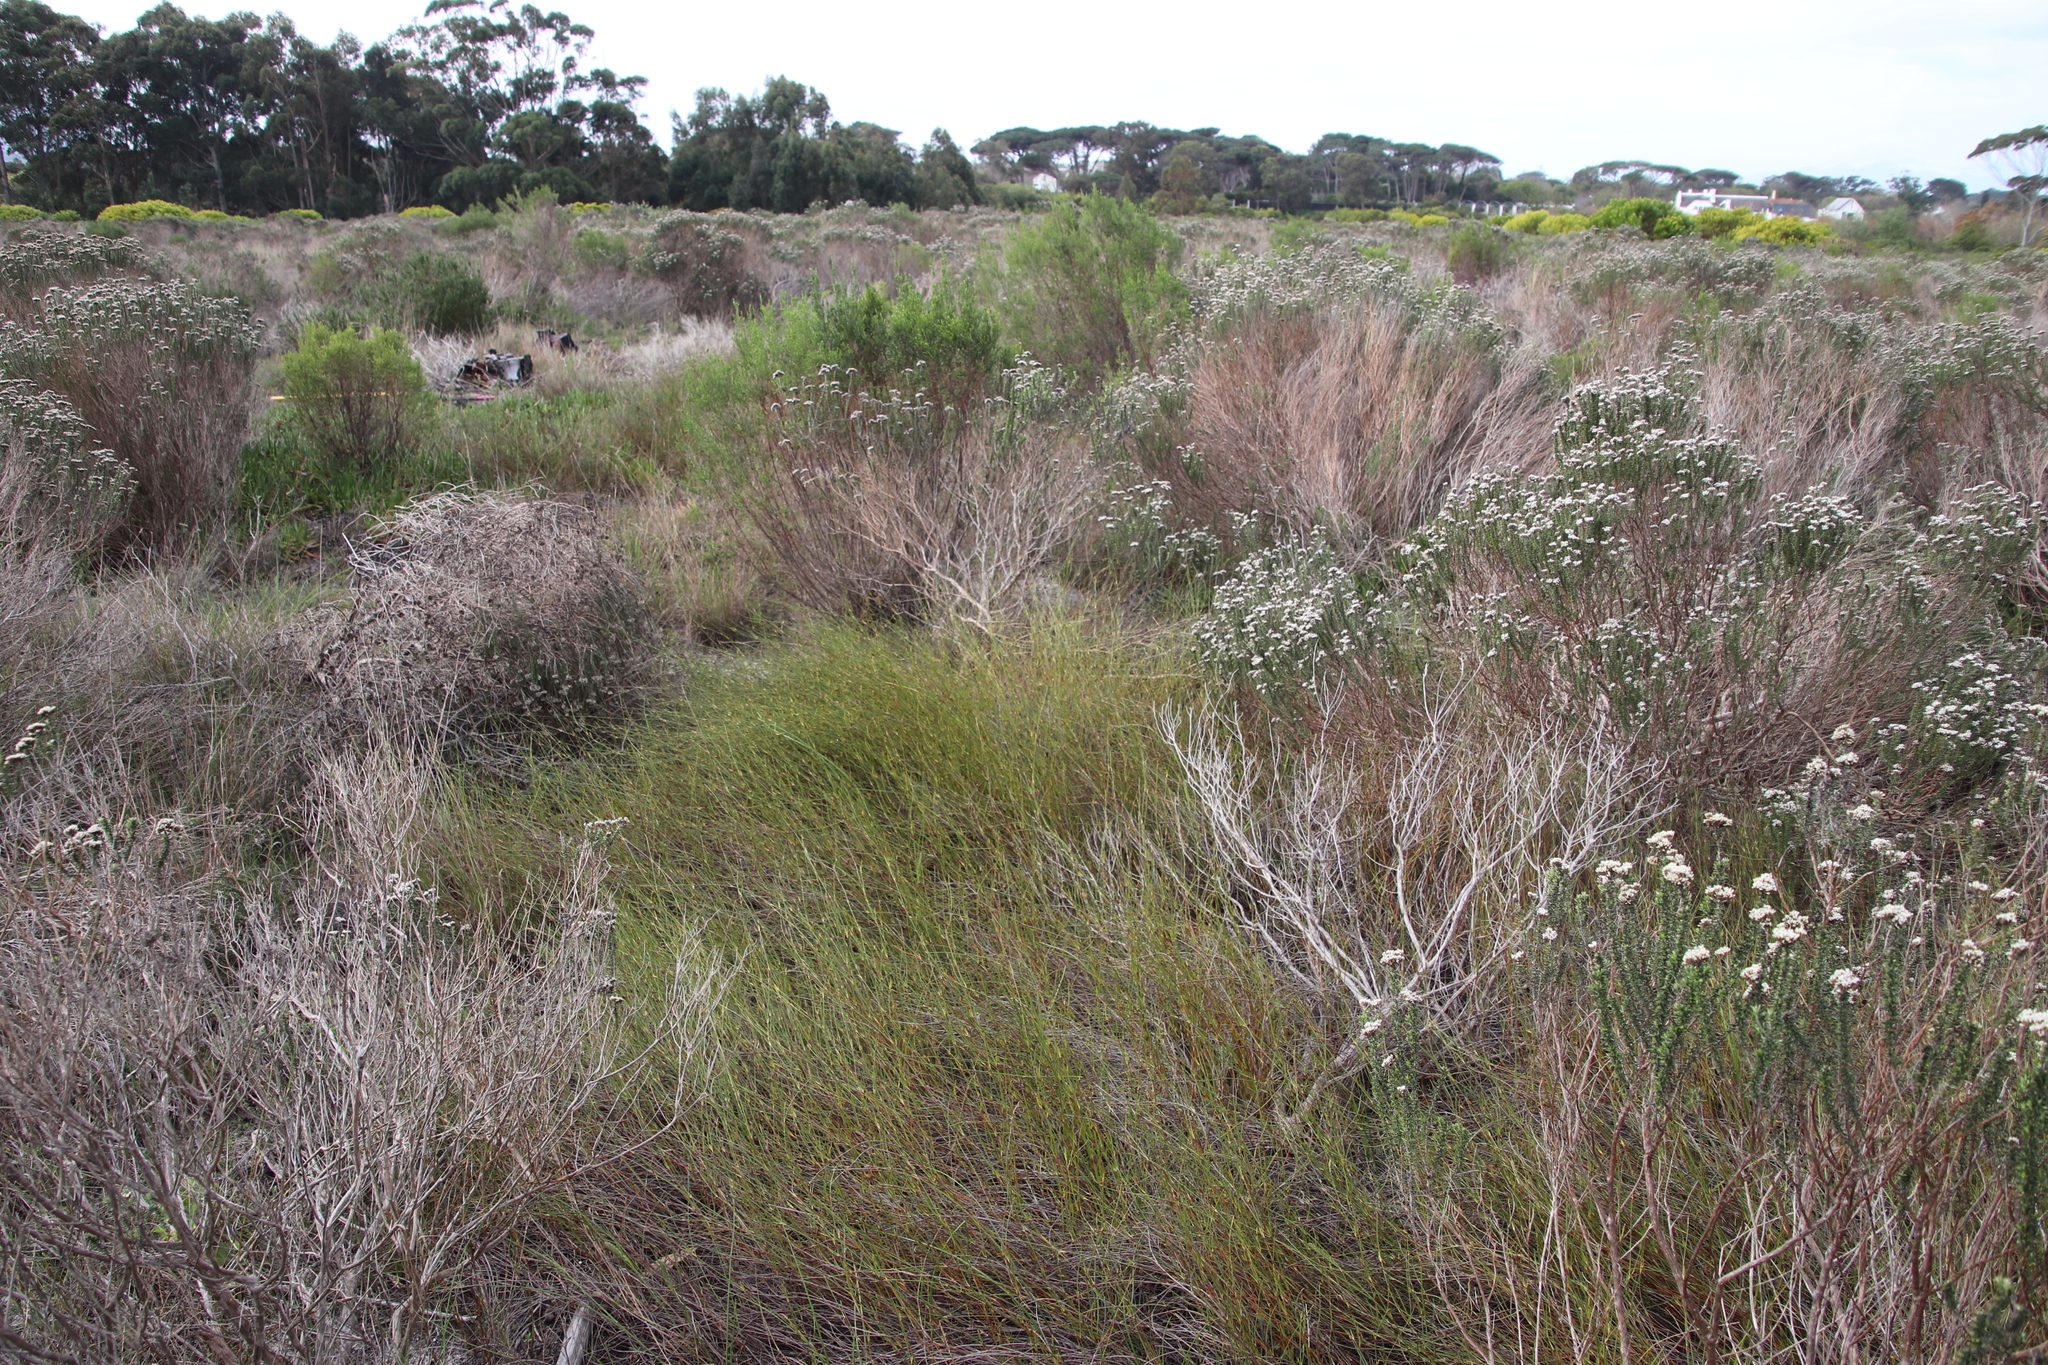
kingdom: Plantae
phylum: Tracheophyta
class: Liliopsida
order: Poales
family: Restionaceae
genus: Willdenowia
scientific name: Willdenowia sulcata
